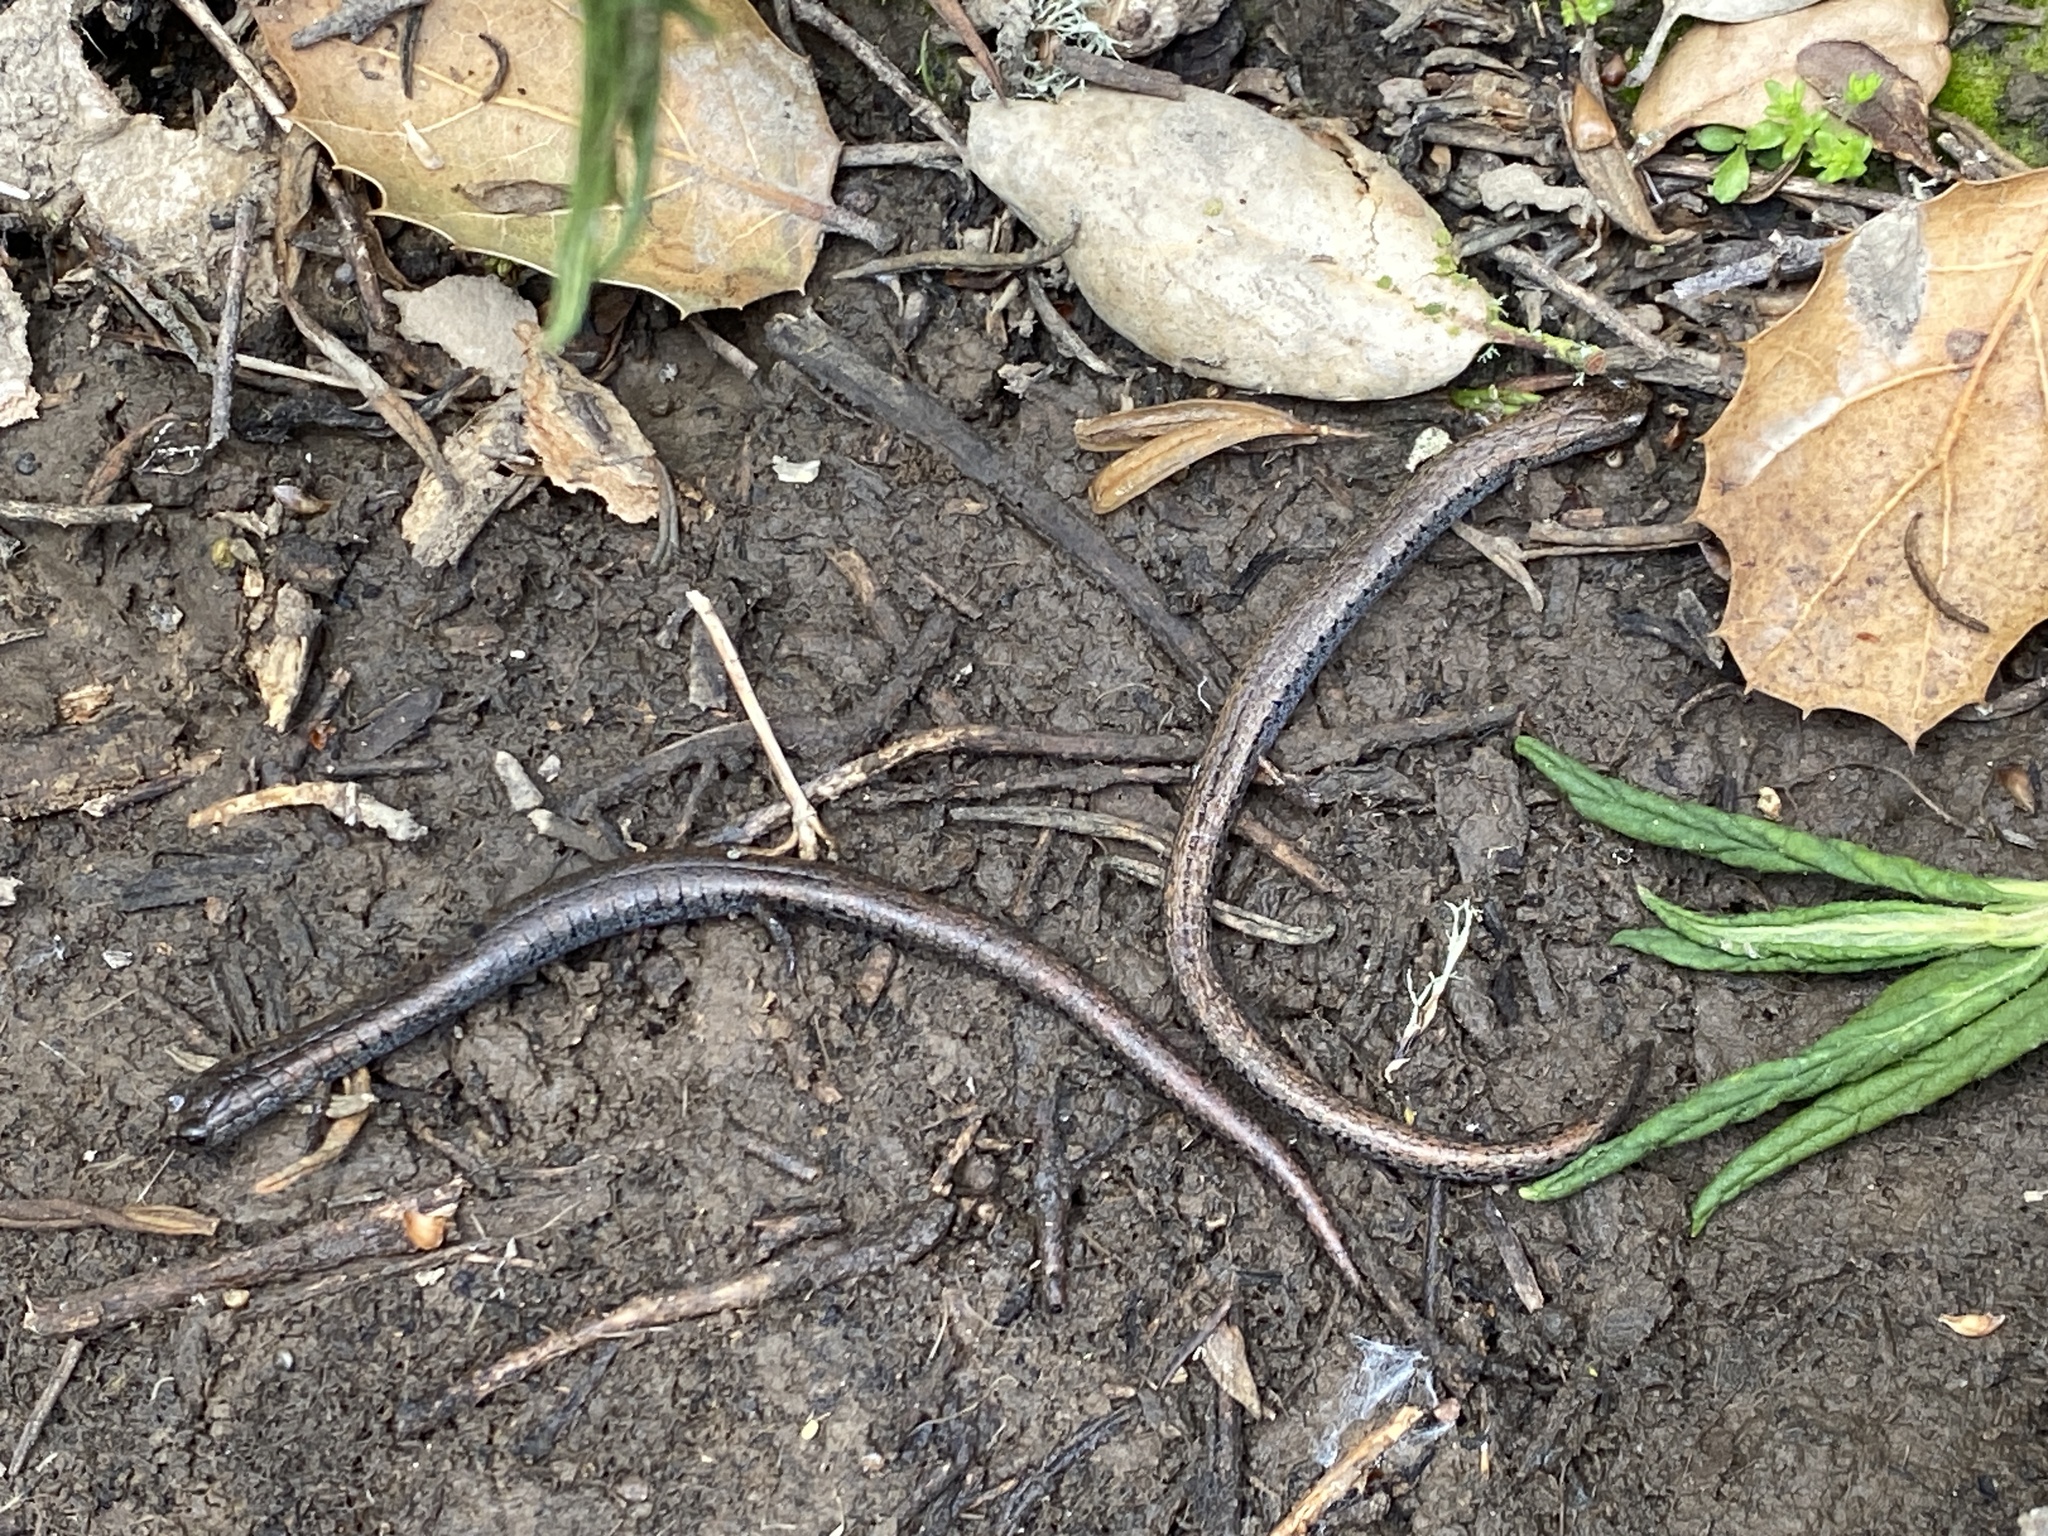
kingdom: Animalia
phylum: Chordata
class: Amphibia
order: Caudata
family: Plethodontidae
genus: Batrachoseps
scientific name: Batrachoseps attenuatus
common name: California slender salamander
